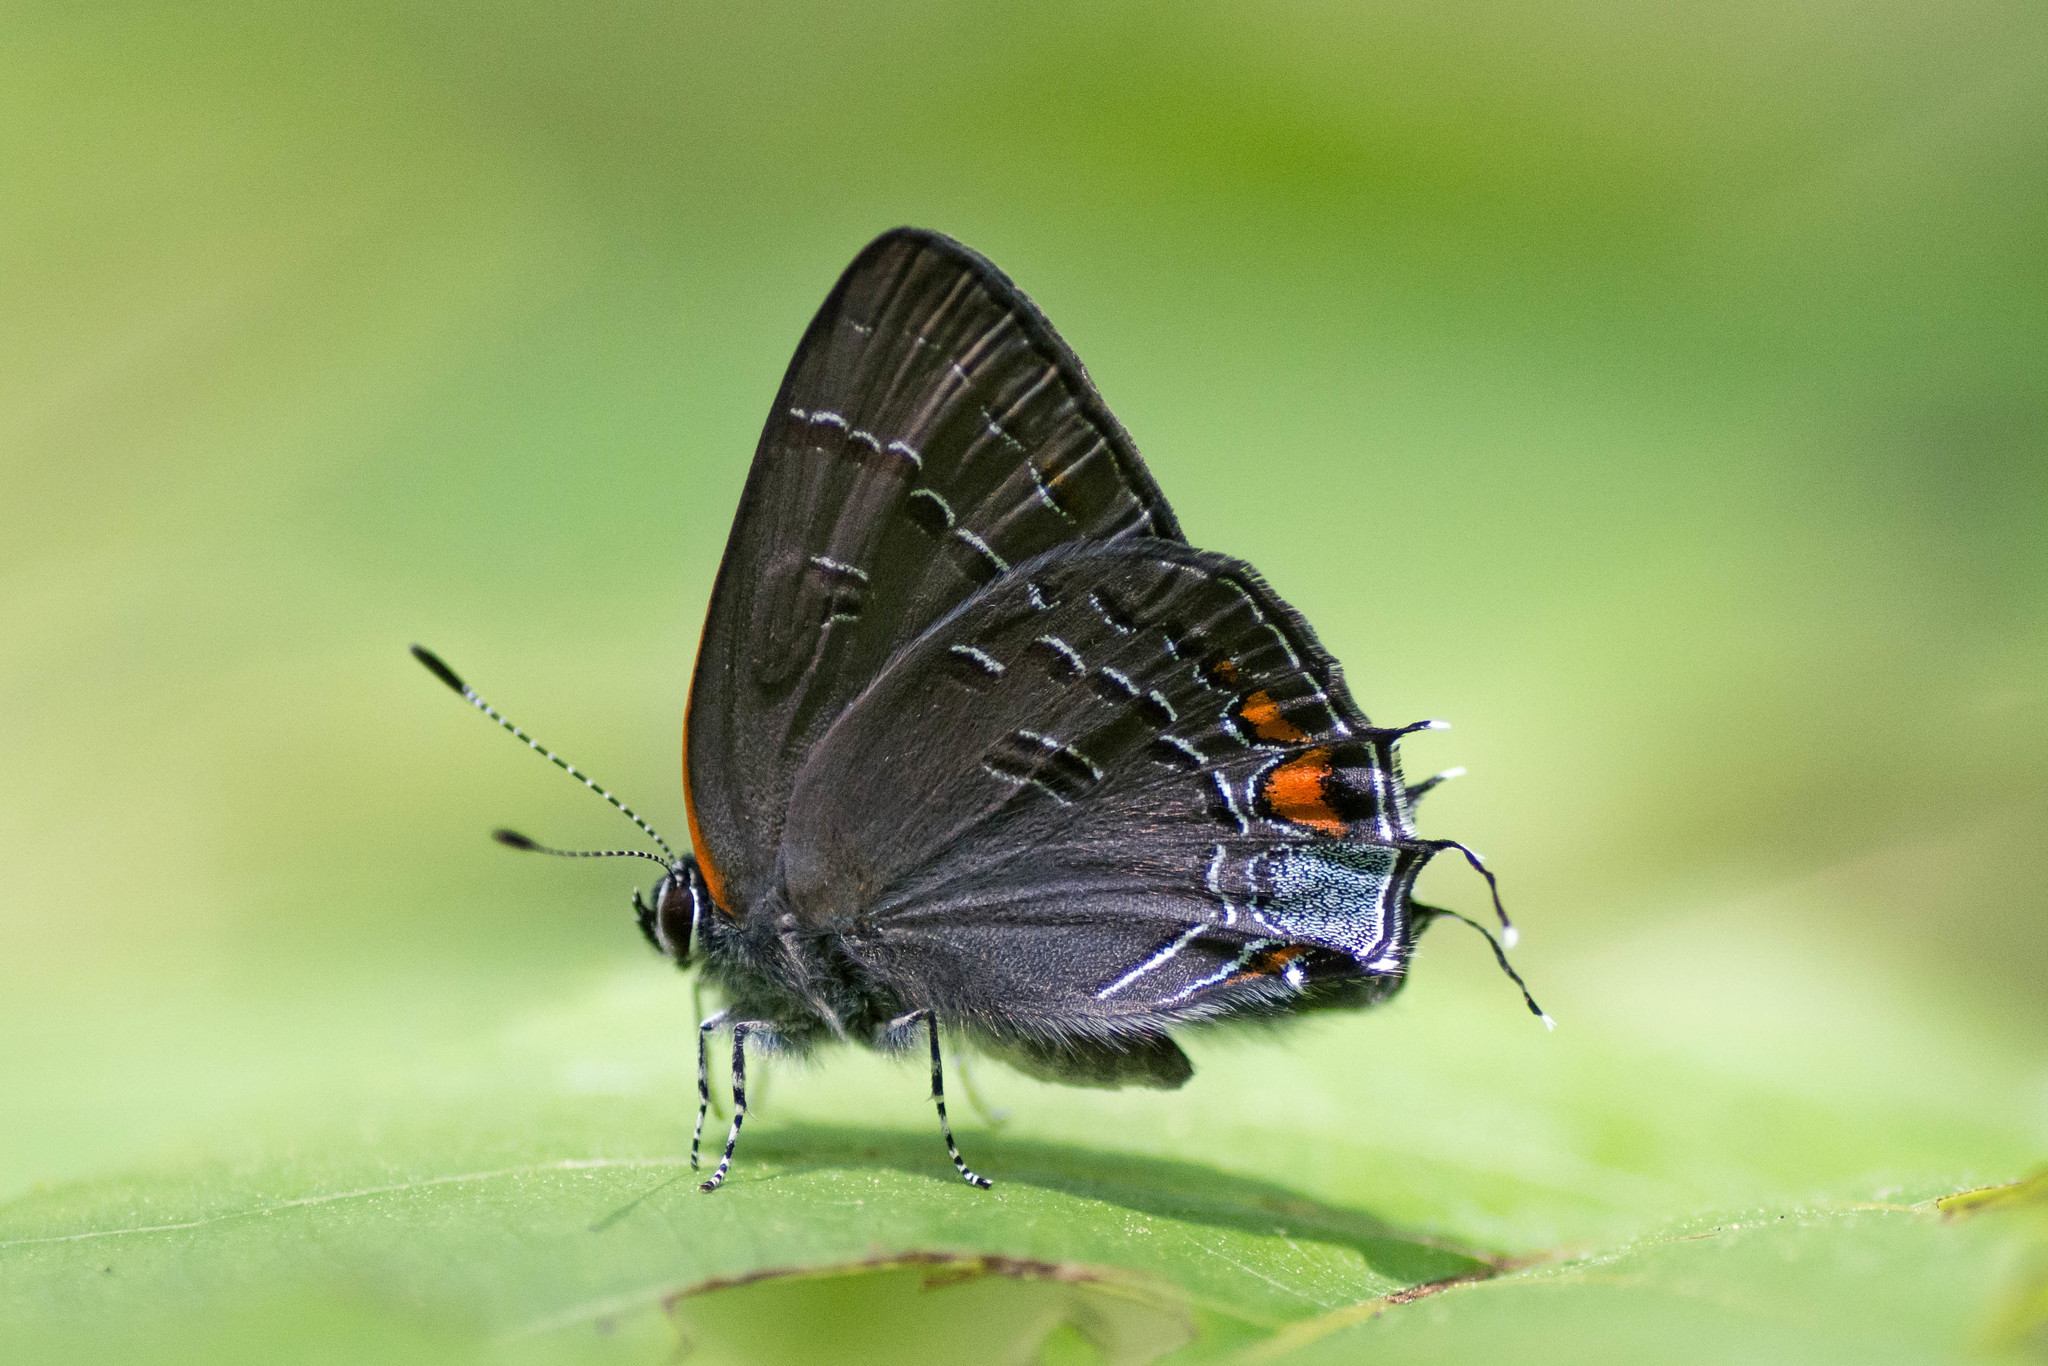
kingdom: Animalia
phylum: Arthropoda
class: Insecta
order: Lepidoptera
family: Lycaenidae
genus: Satyrium
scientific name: Satyrium calanus
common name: Banded hairstreak
